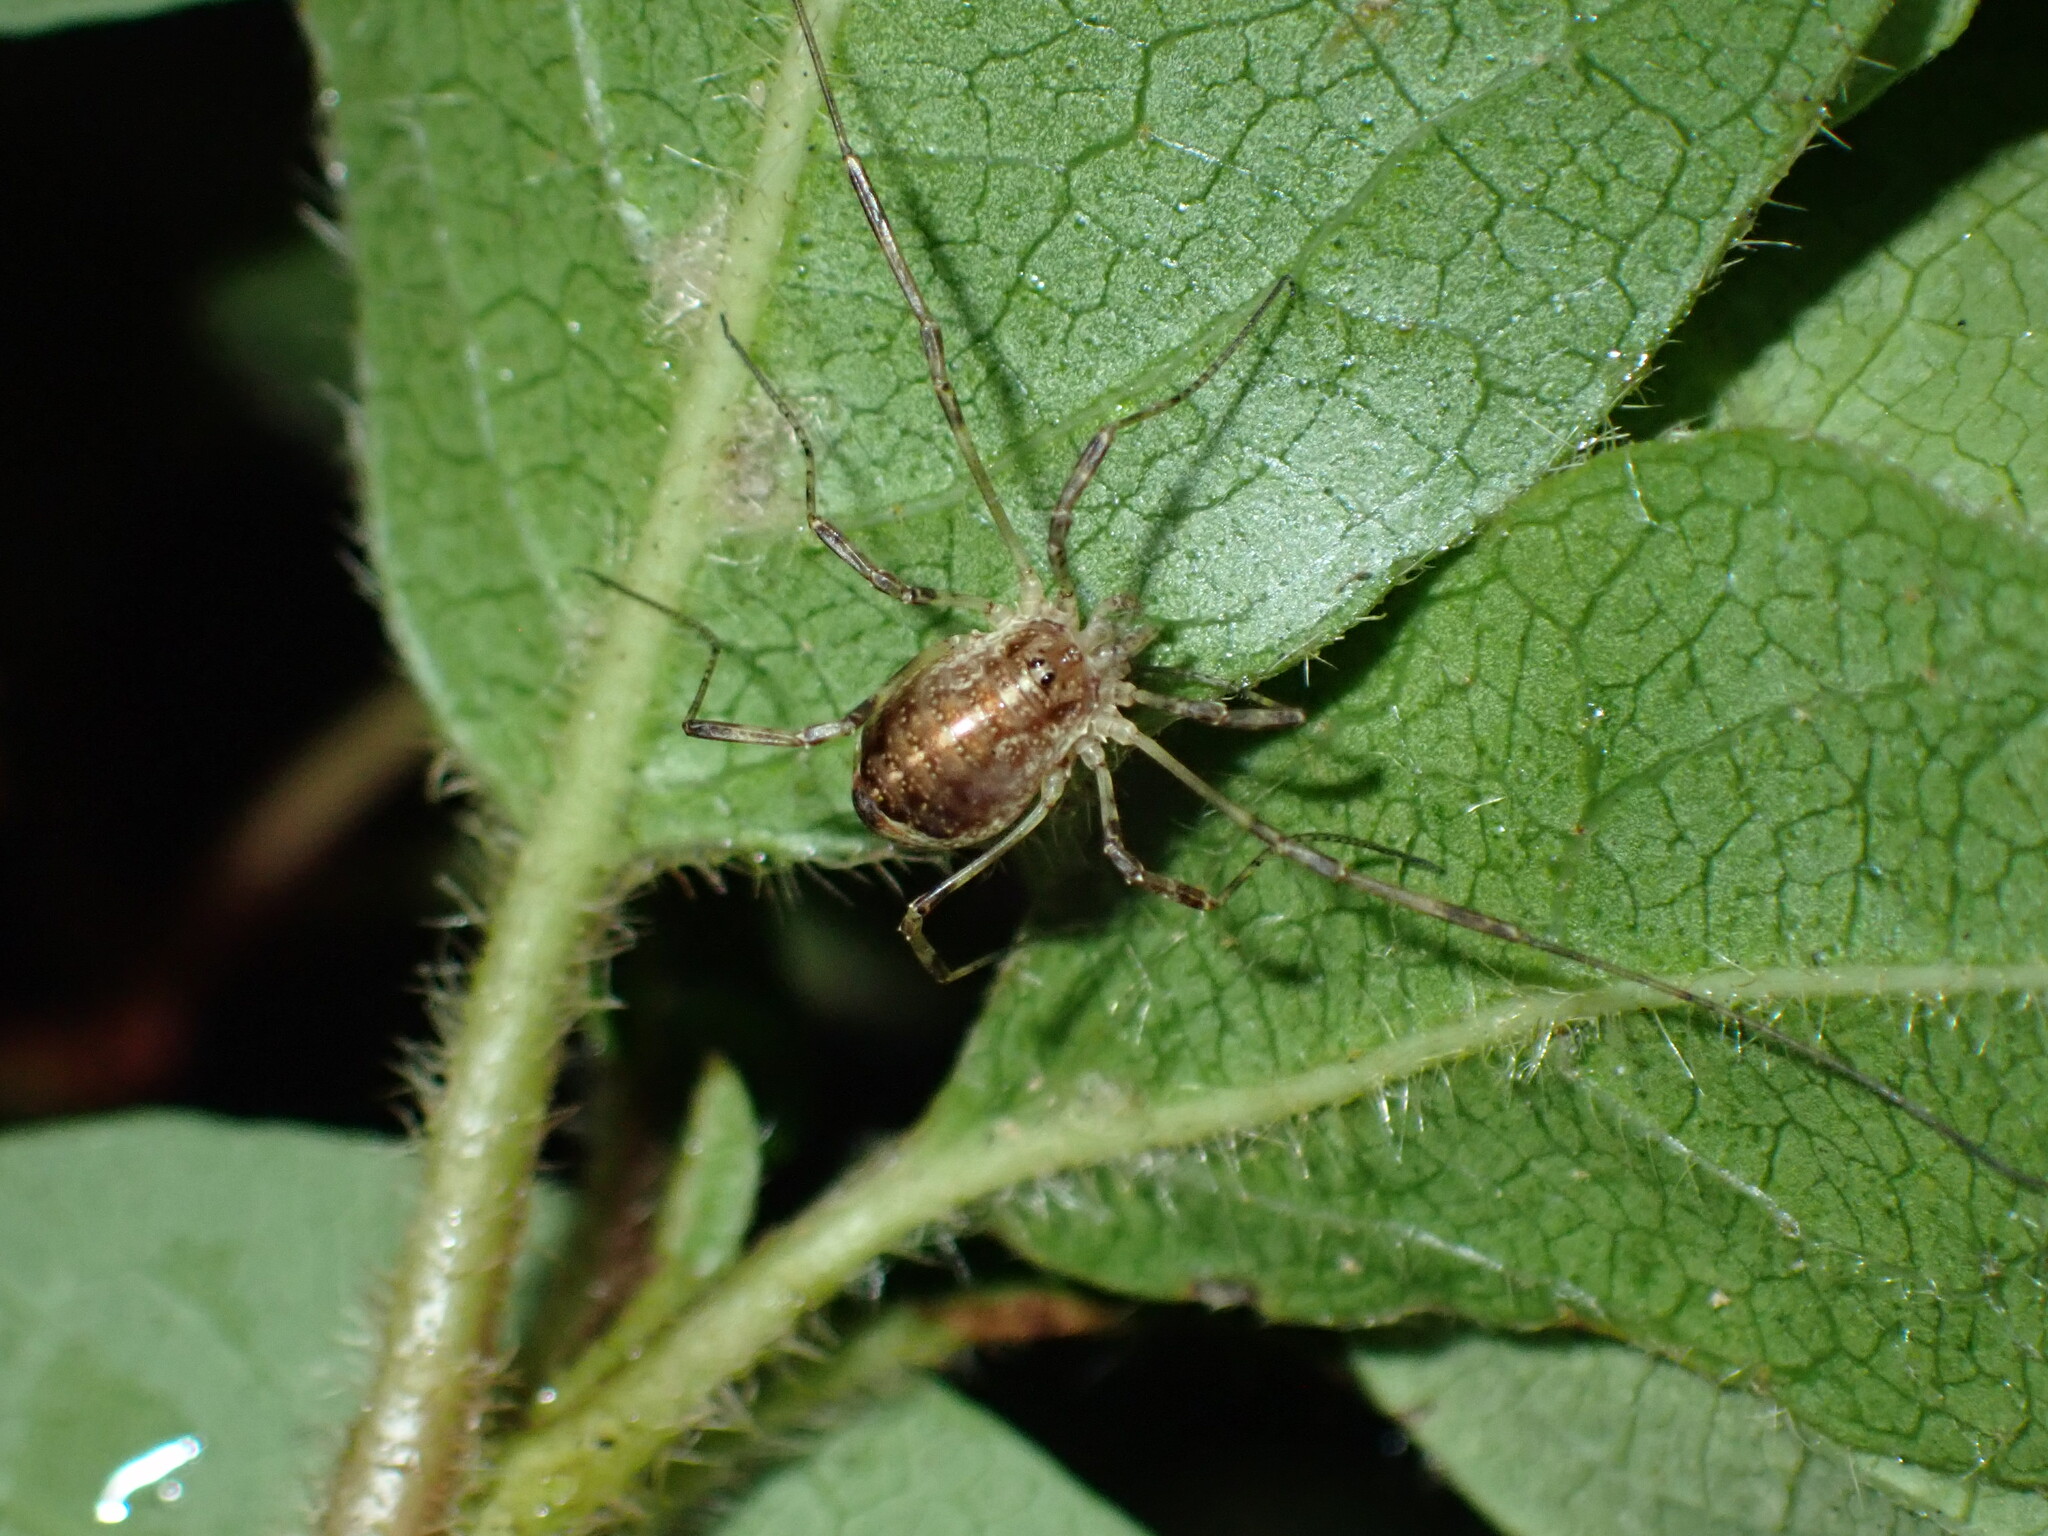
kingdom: Animalia
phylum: Arthropoda
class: Arachnida
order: Opiliones
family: Phalangiidae
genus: Paroligolophus
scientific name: Paroligolophus agrestis
